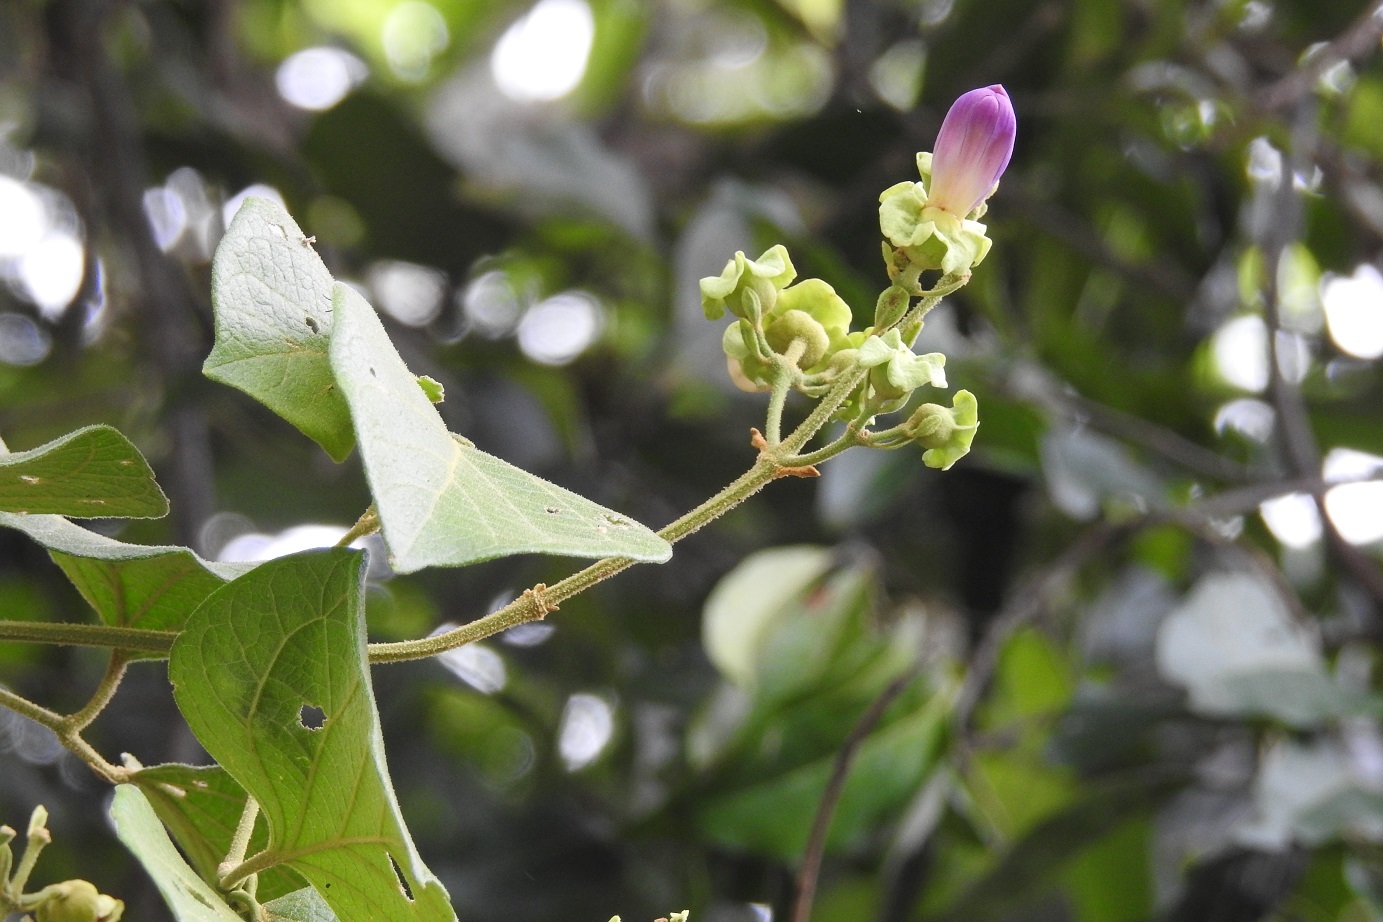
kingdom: Plantae
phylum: Tracheophyta
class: Magnoliopsida
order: Lamiales
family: Bignoniaceae
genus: Amphilophium
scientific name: Amphilophium paniculatum
